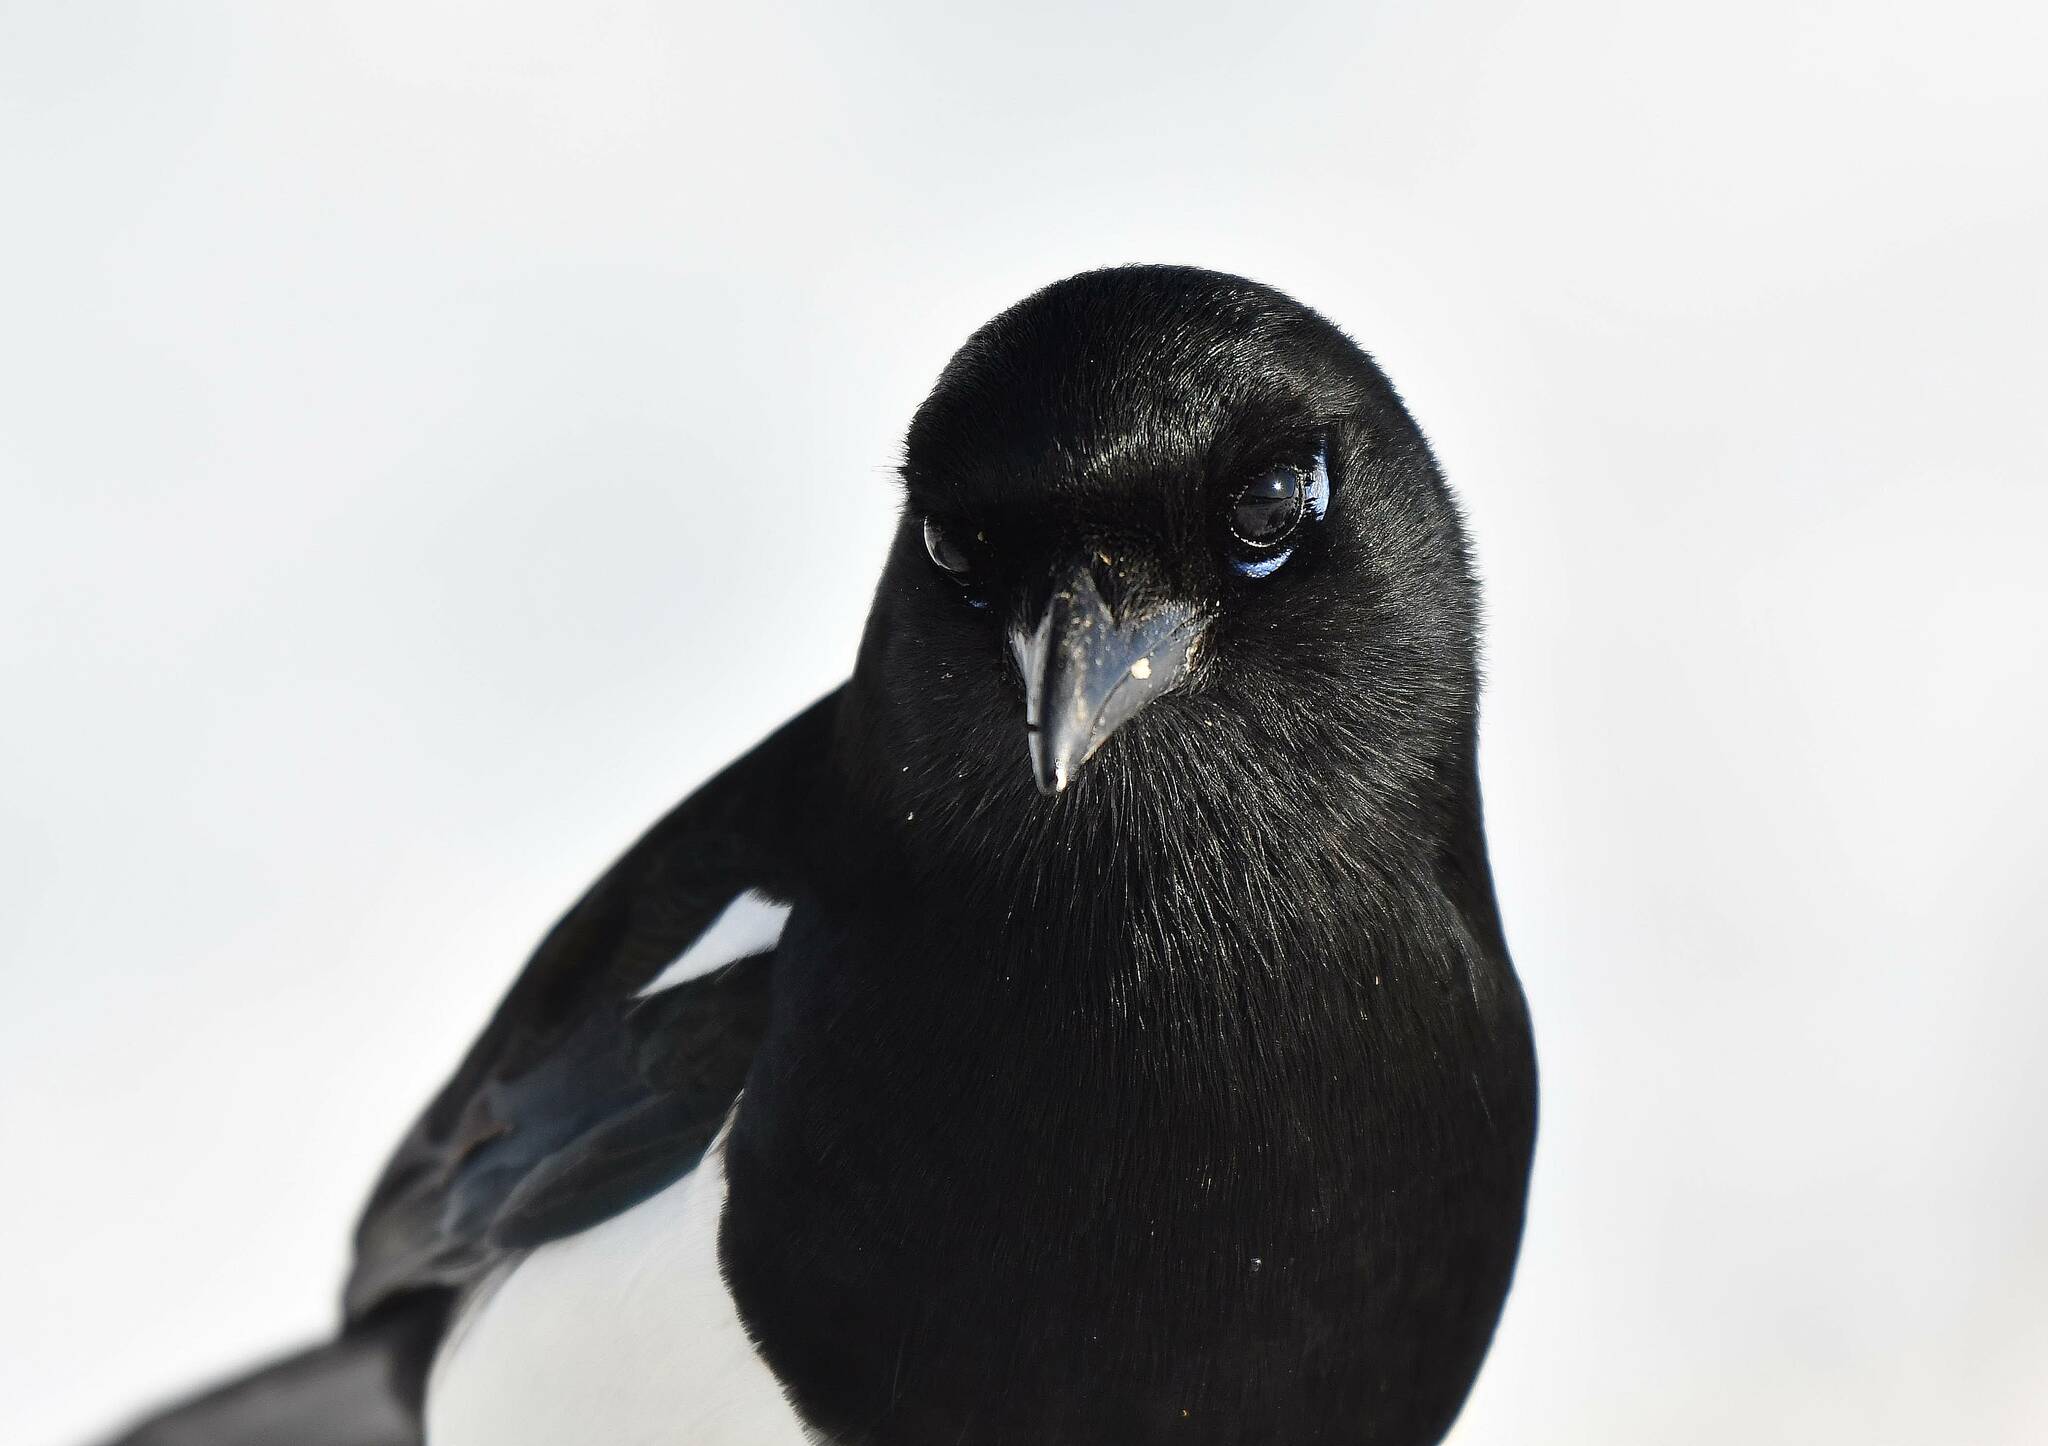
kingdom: Animalia
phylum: Chordata
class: Aves
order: Passeriformes
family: Corvidae
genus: Pica
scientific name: Pica mauritanica
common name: Maghreb magpie
